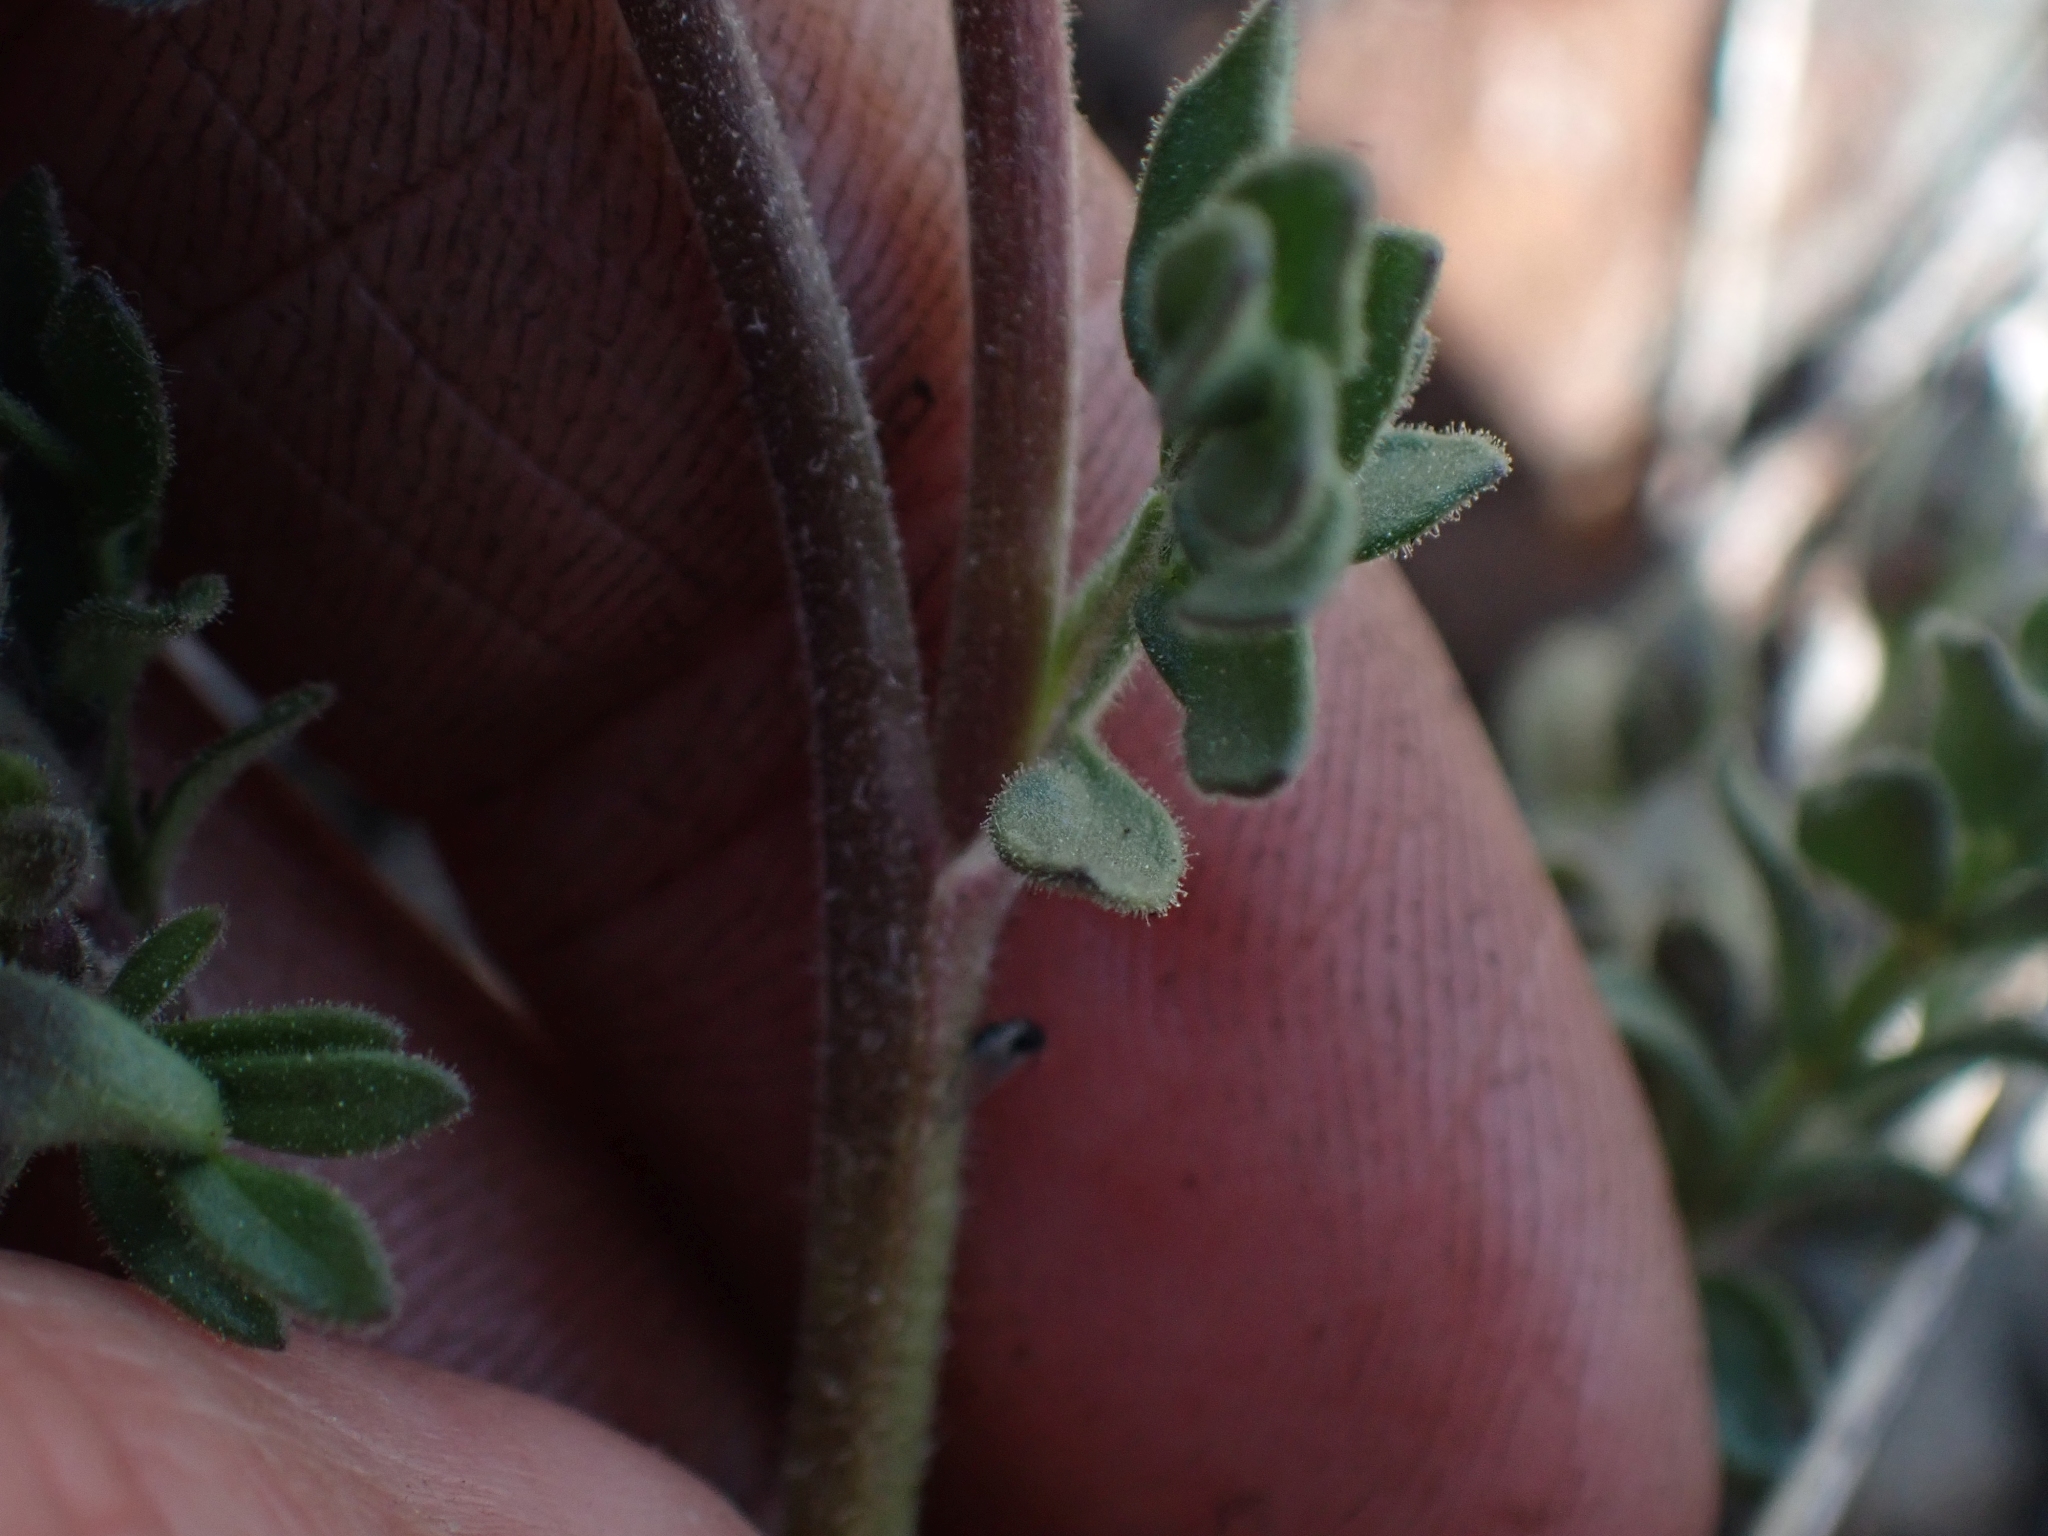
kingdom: Plantae
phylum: Tracheophyta
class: Magnoliopsida
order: Ericales
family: Polemoniaceae
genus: Polemonium
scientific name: Polemonium pulcherrimum
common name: Short jacob's-ladder
